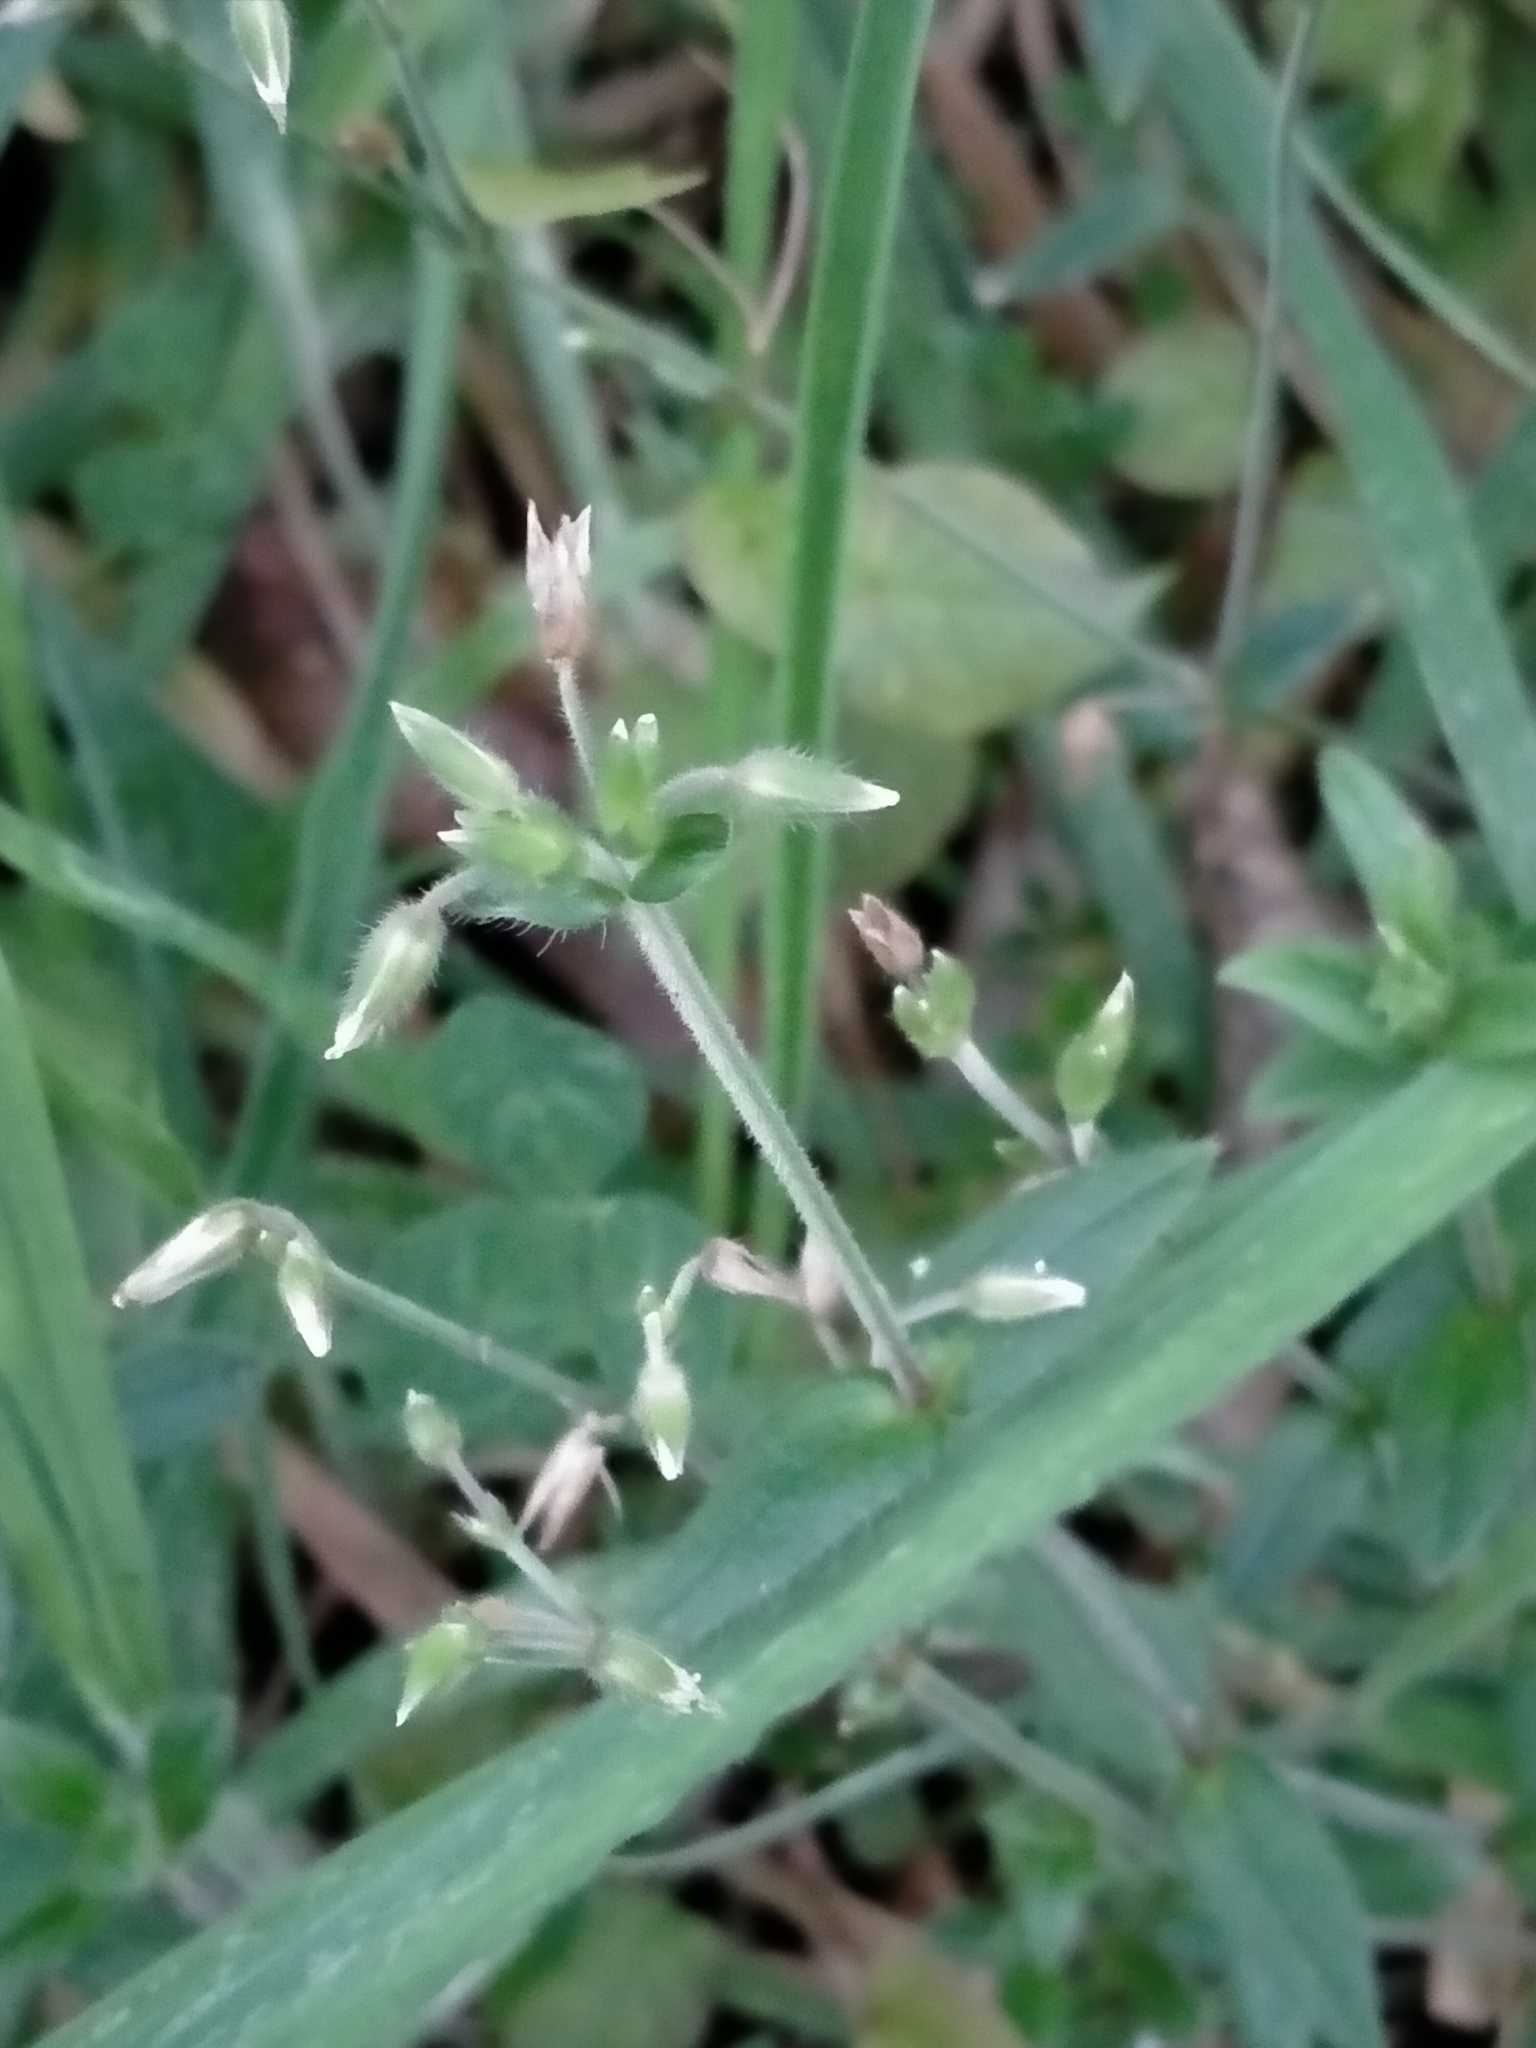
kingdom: Plantae
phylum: Tracheophyta
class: Magnoliopsida
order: Caryophyllales
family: Caryophyllaceae
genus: Cerastium
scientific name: Cerastium fontanum
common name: Common mouse-ear
